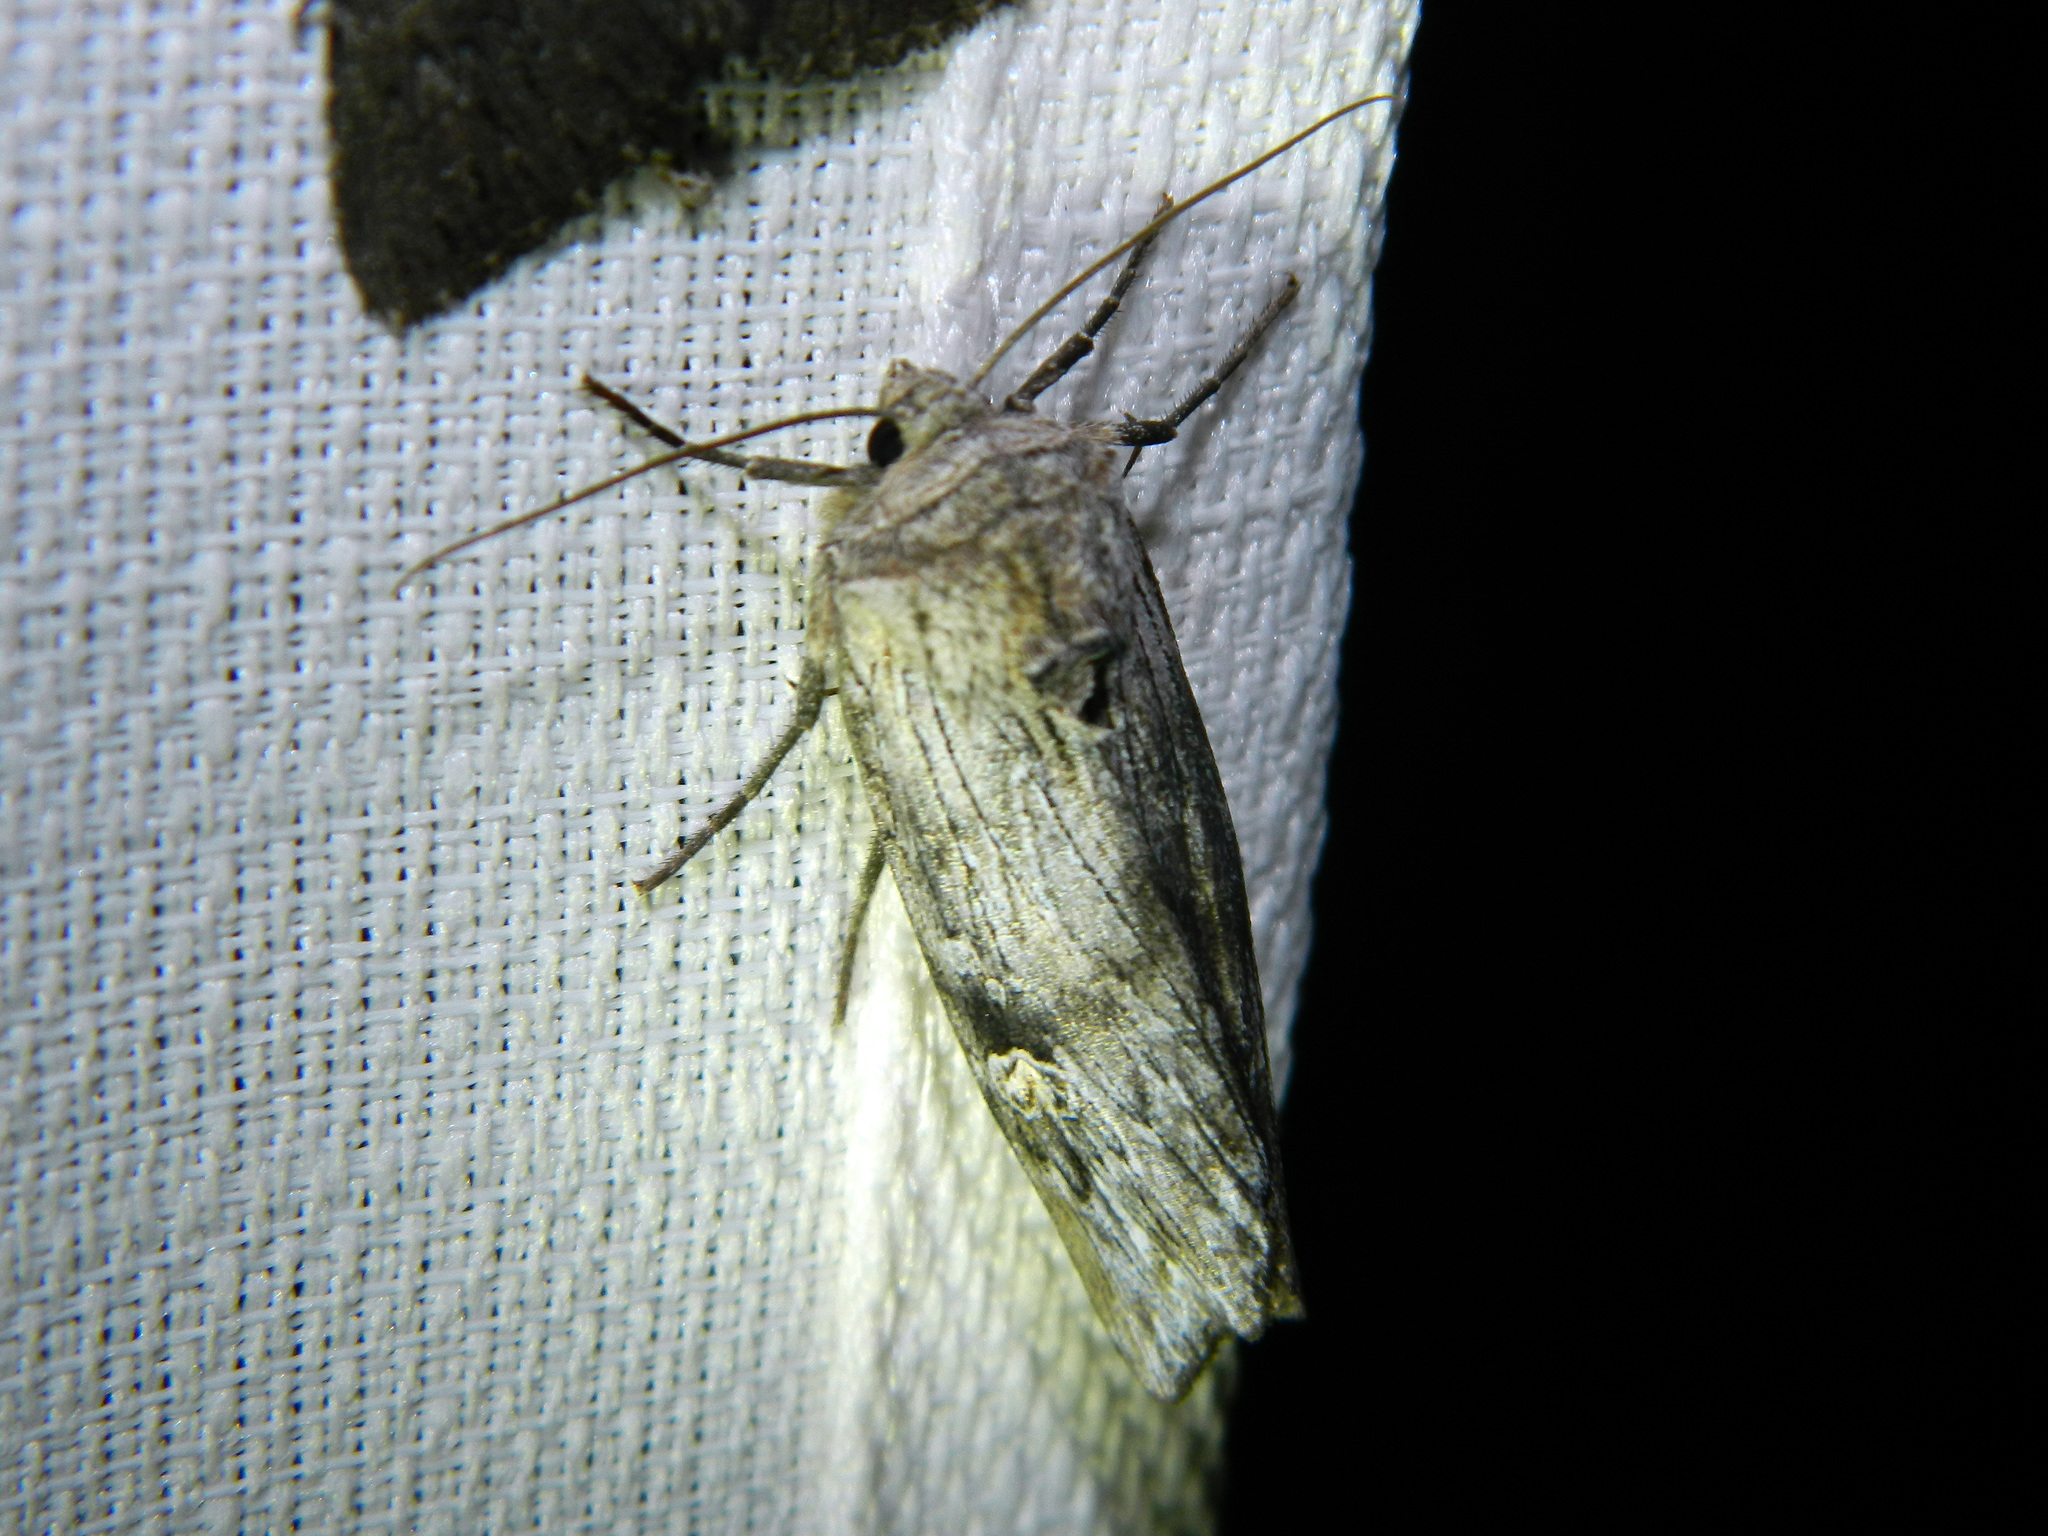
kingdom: Animalia
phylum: Arthropoda
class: Insecta
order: Lepidoptera
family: Noctuidae
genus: Xylena
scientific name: Xylena germana
